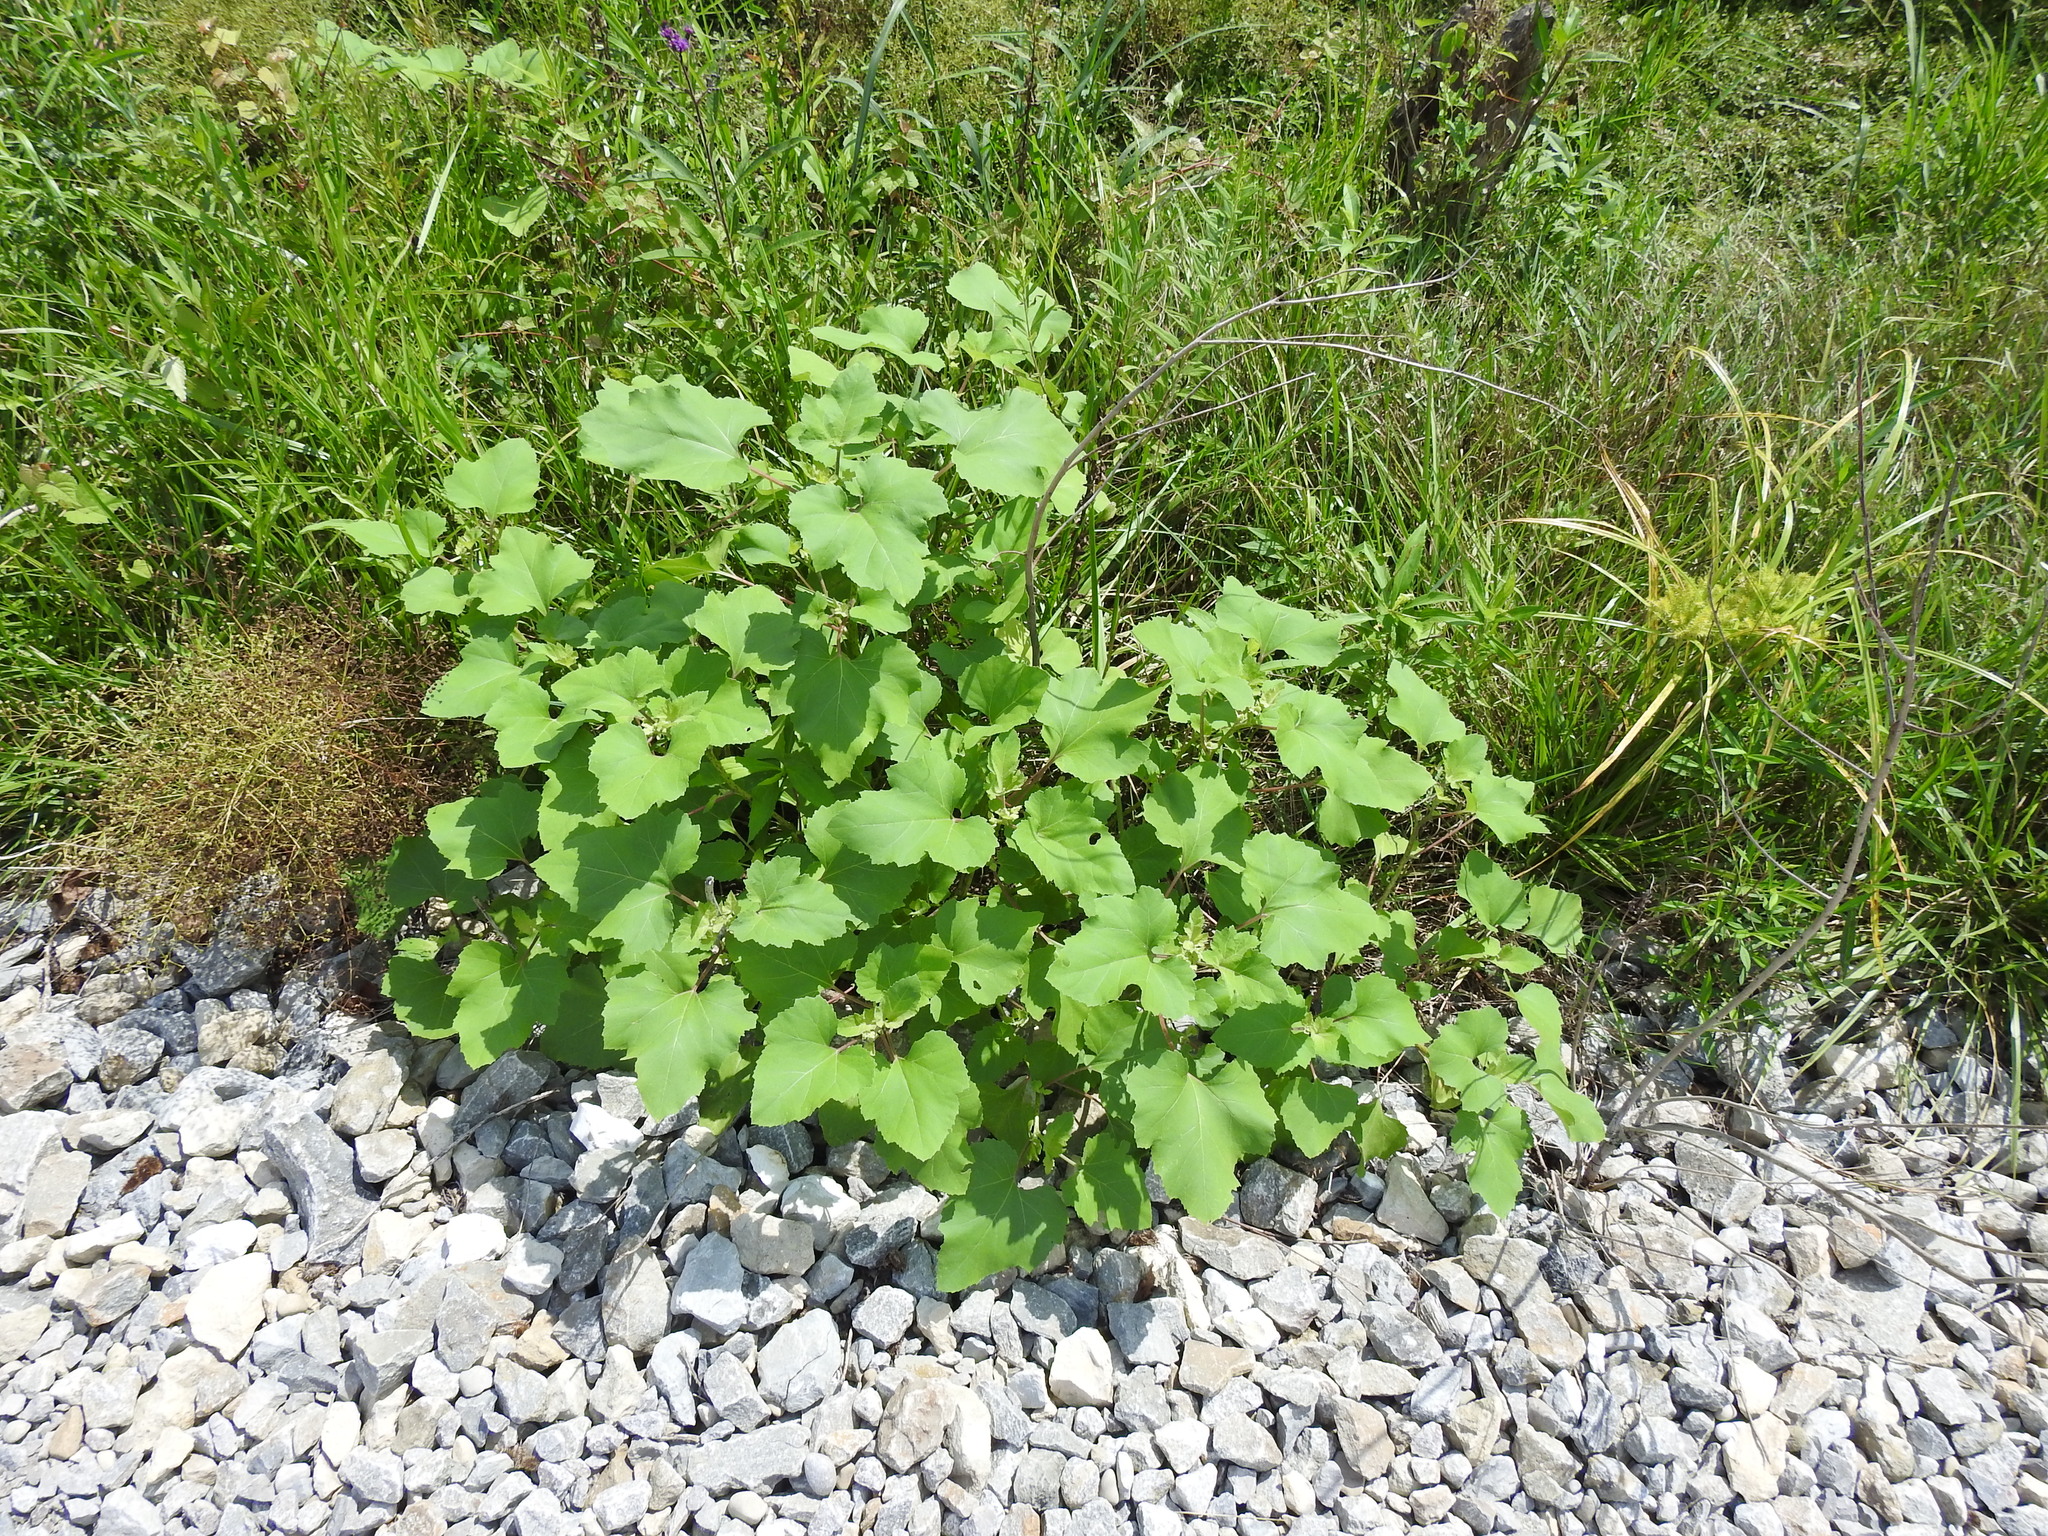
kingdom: Plantae
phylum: Tracheophyta
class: Magnoliopsida
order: Asterales
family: Asteraceae
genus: Xanthium
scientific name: Xanthium strumarium
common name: Rough cocklebur
